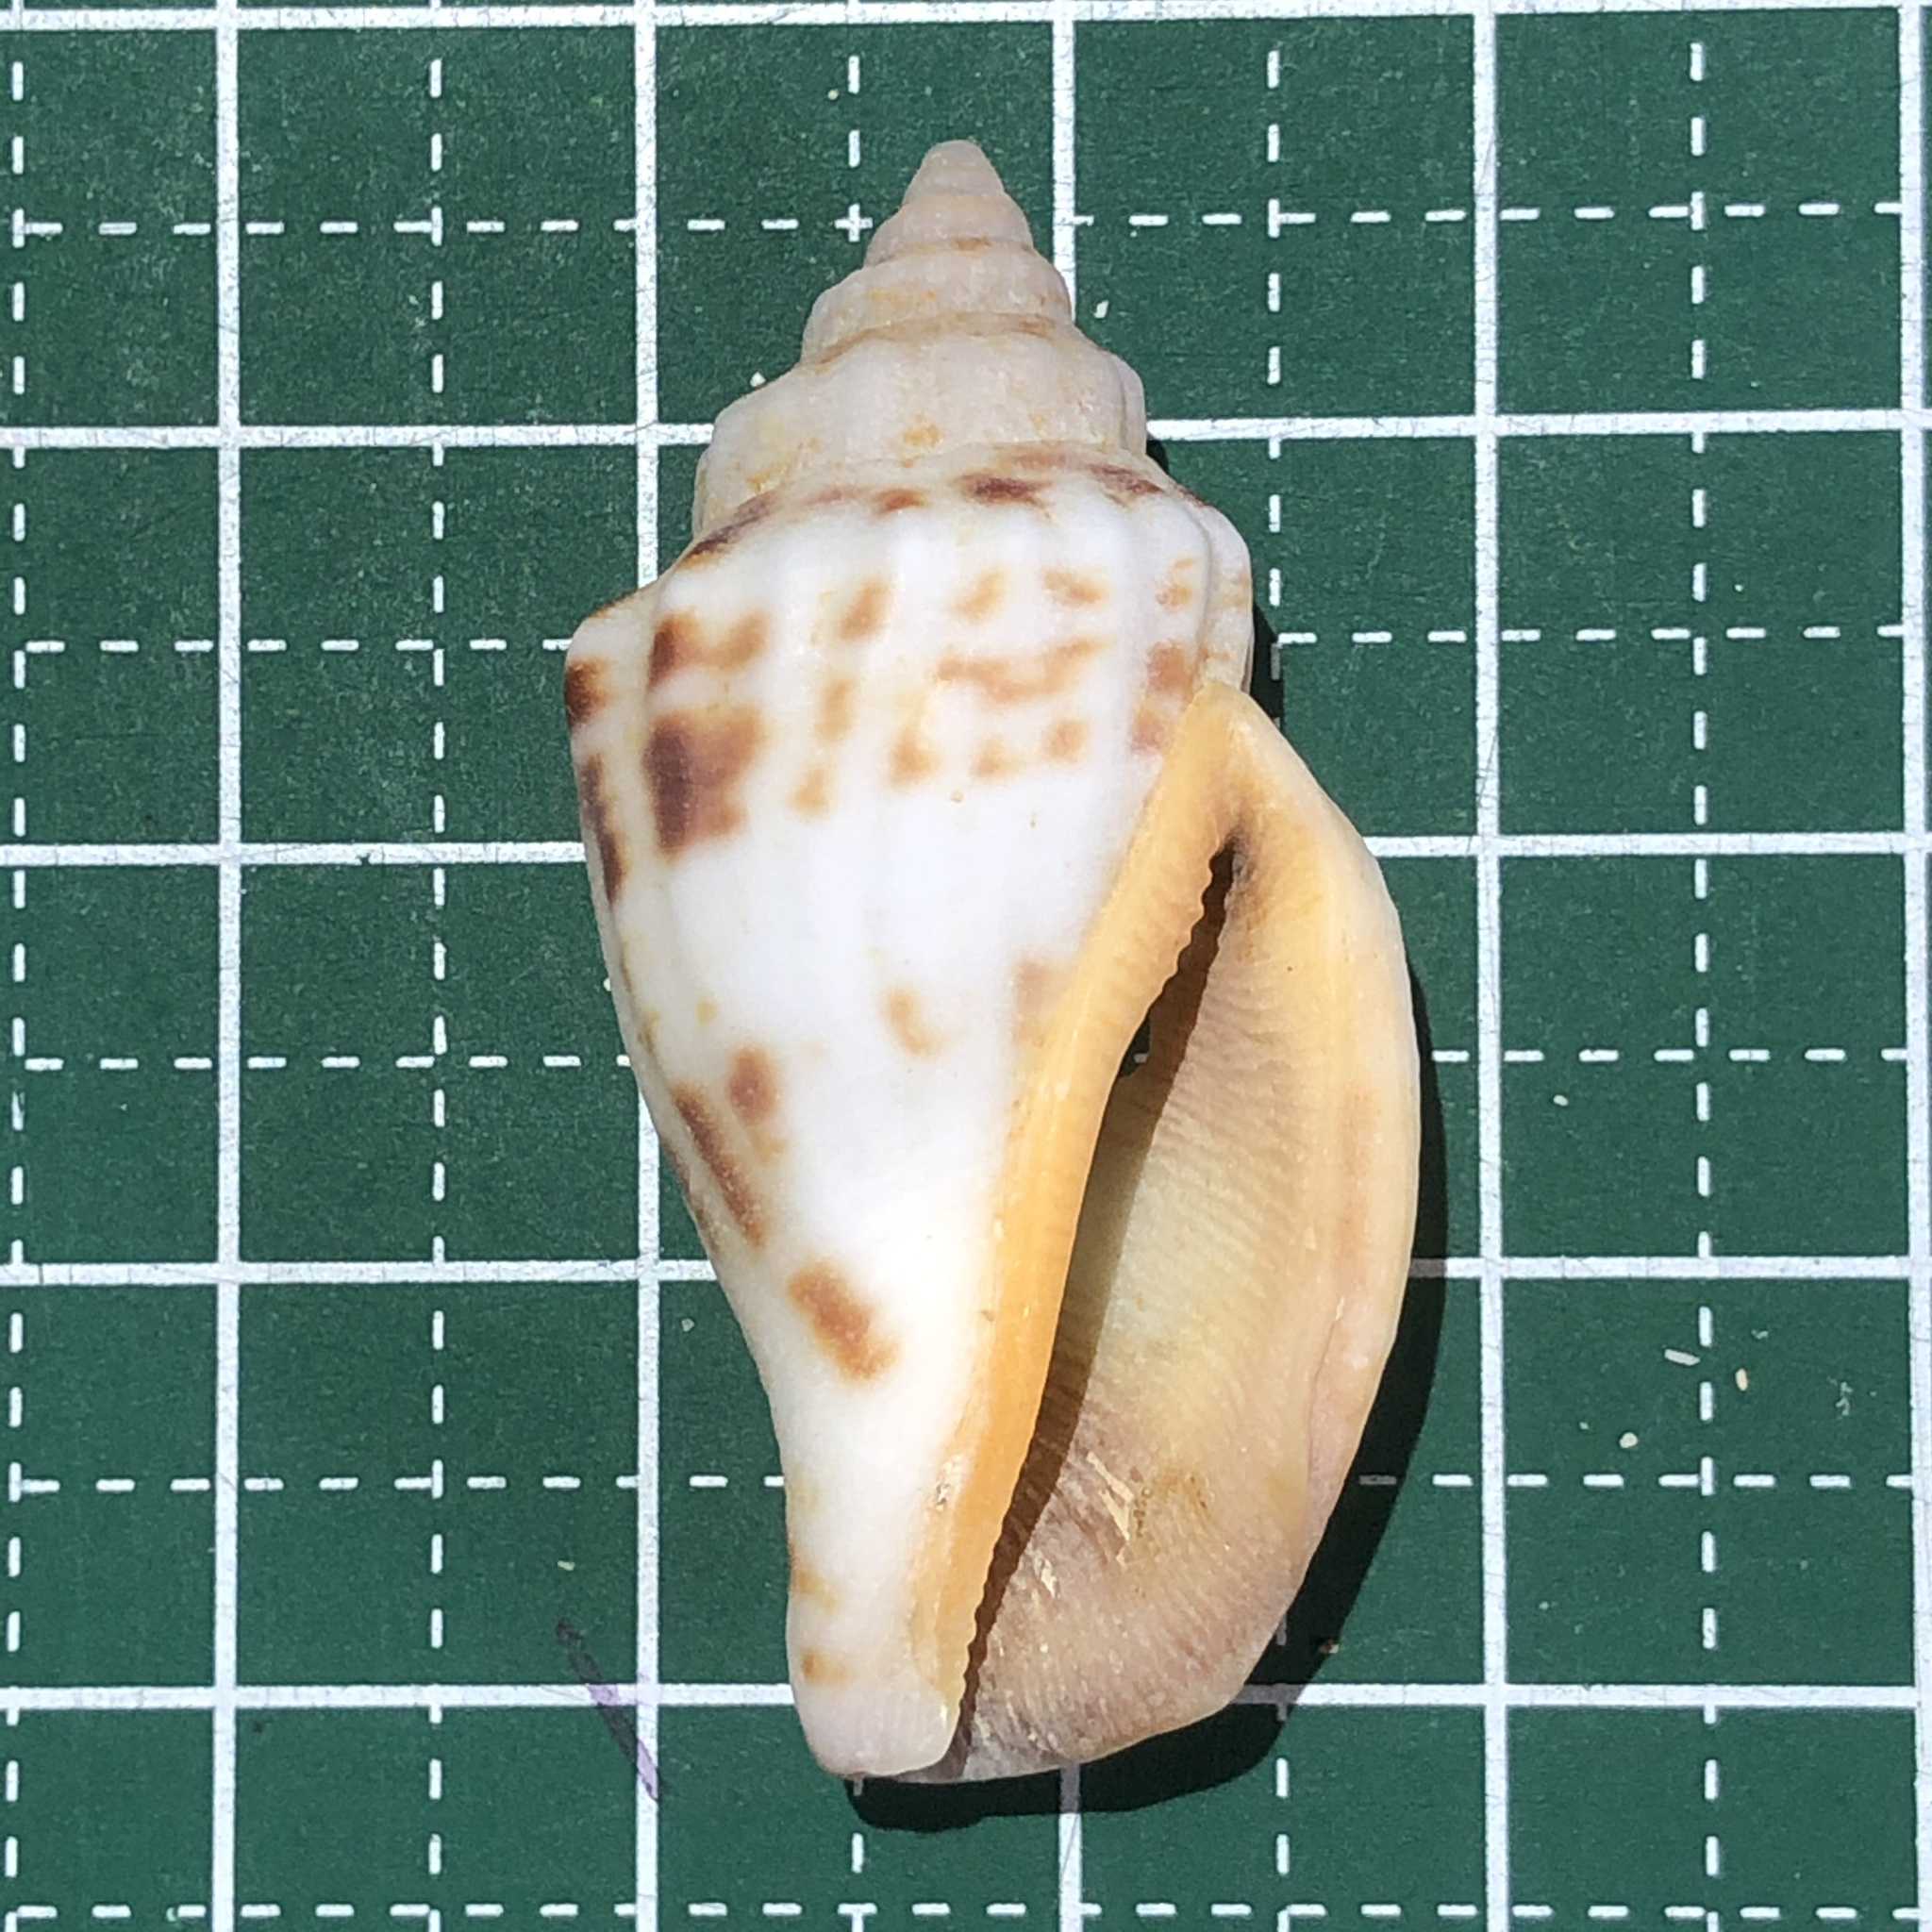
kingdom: Animalia
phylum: Mollusca
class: Gastropoda
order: Littorinimorpha
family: Strombidae
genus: Canarium
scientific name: Canarium urceus
